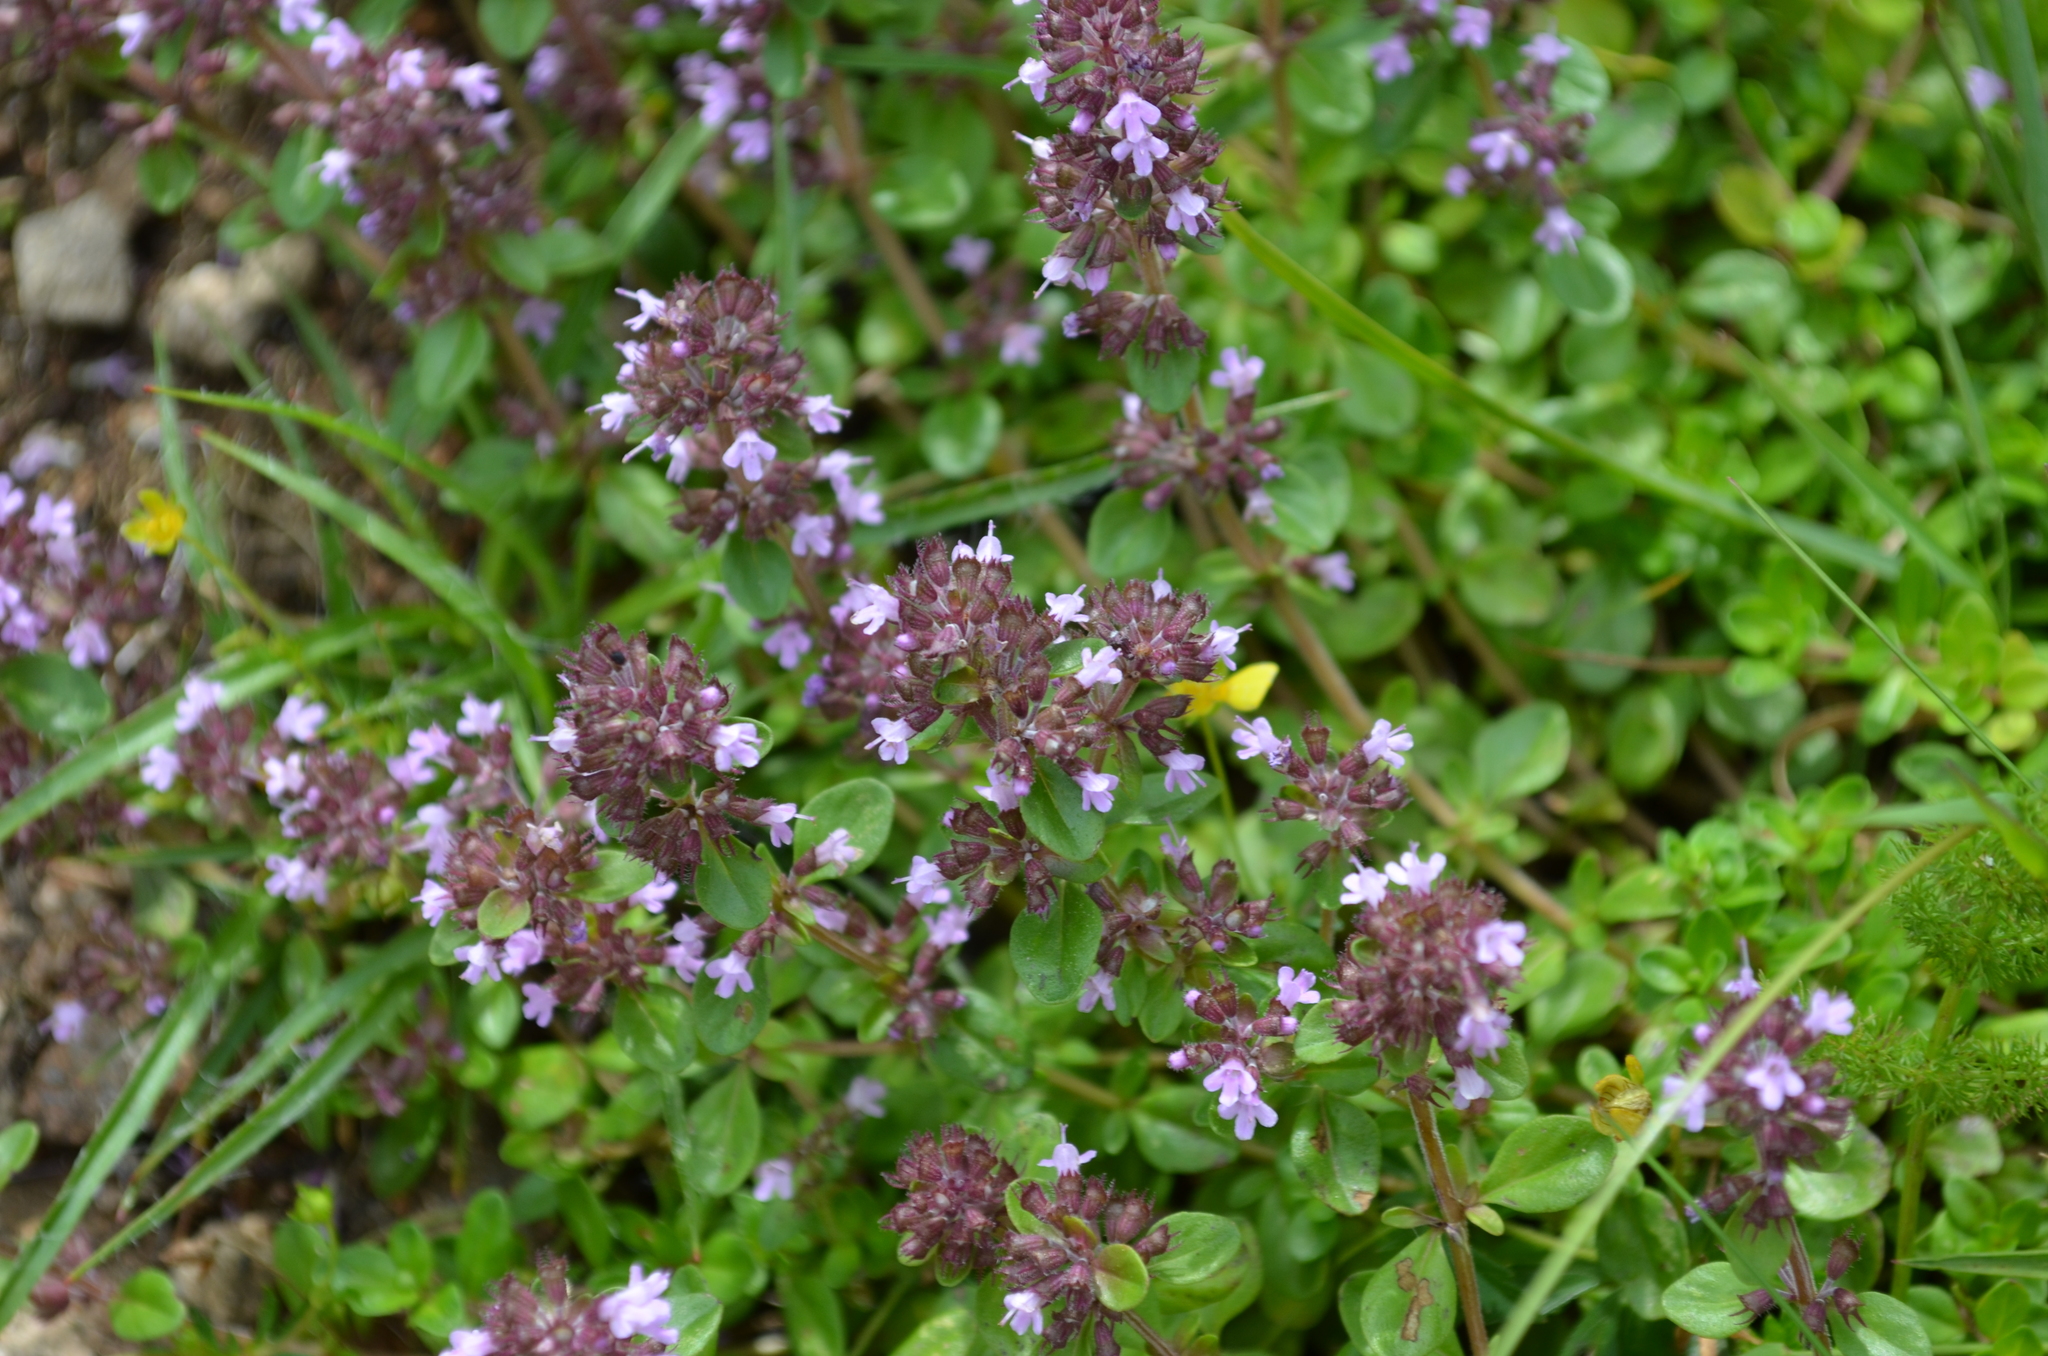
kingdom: Plantae
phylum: Tracheophyta
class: Magnoliopsida
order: Lamiales
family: Lamiaceae
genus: Thymus
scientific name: Thymus pulegioides
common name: Large thyme
